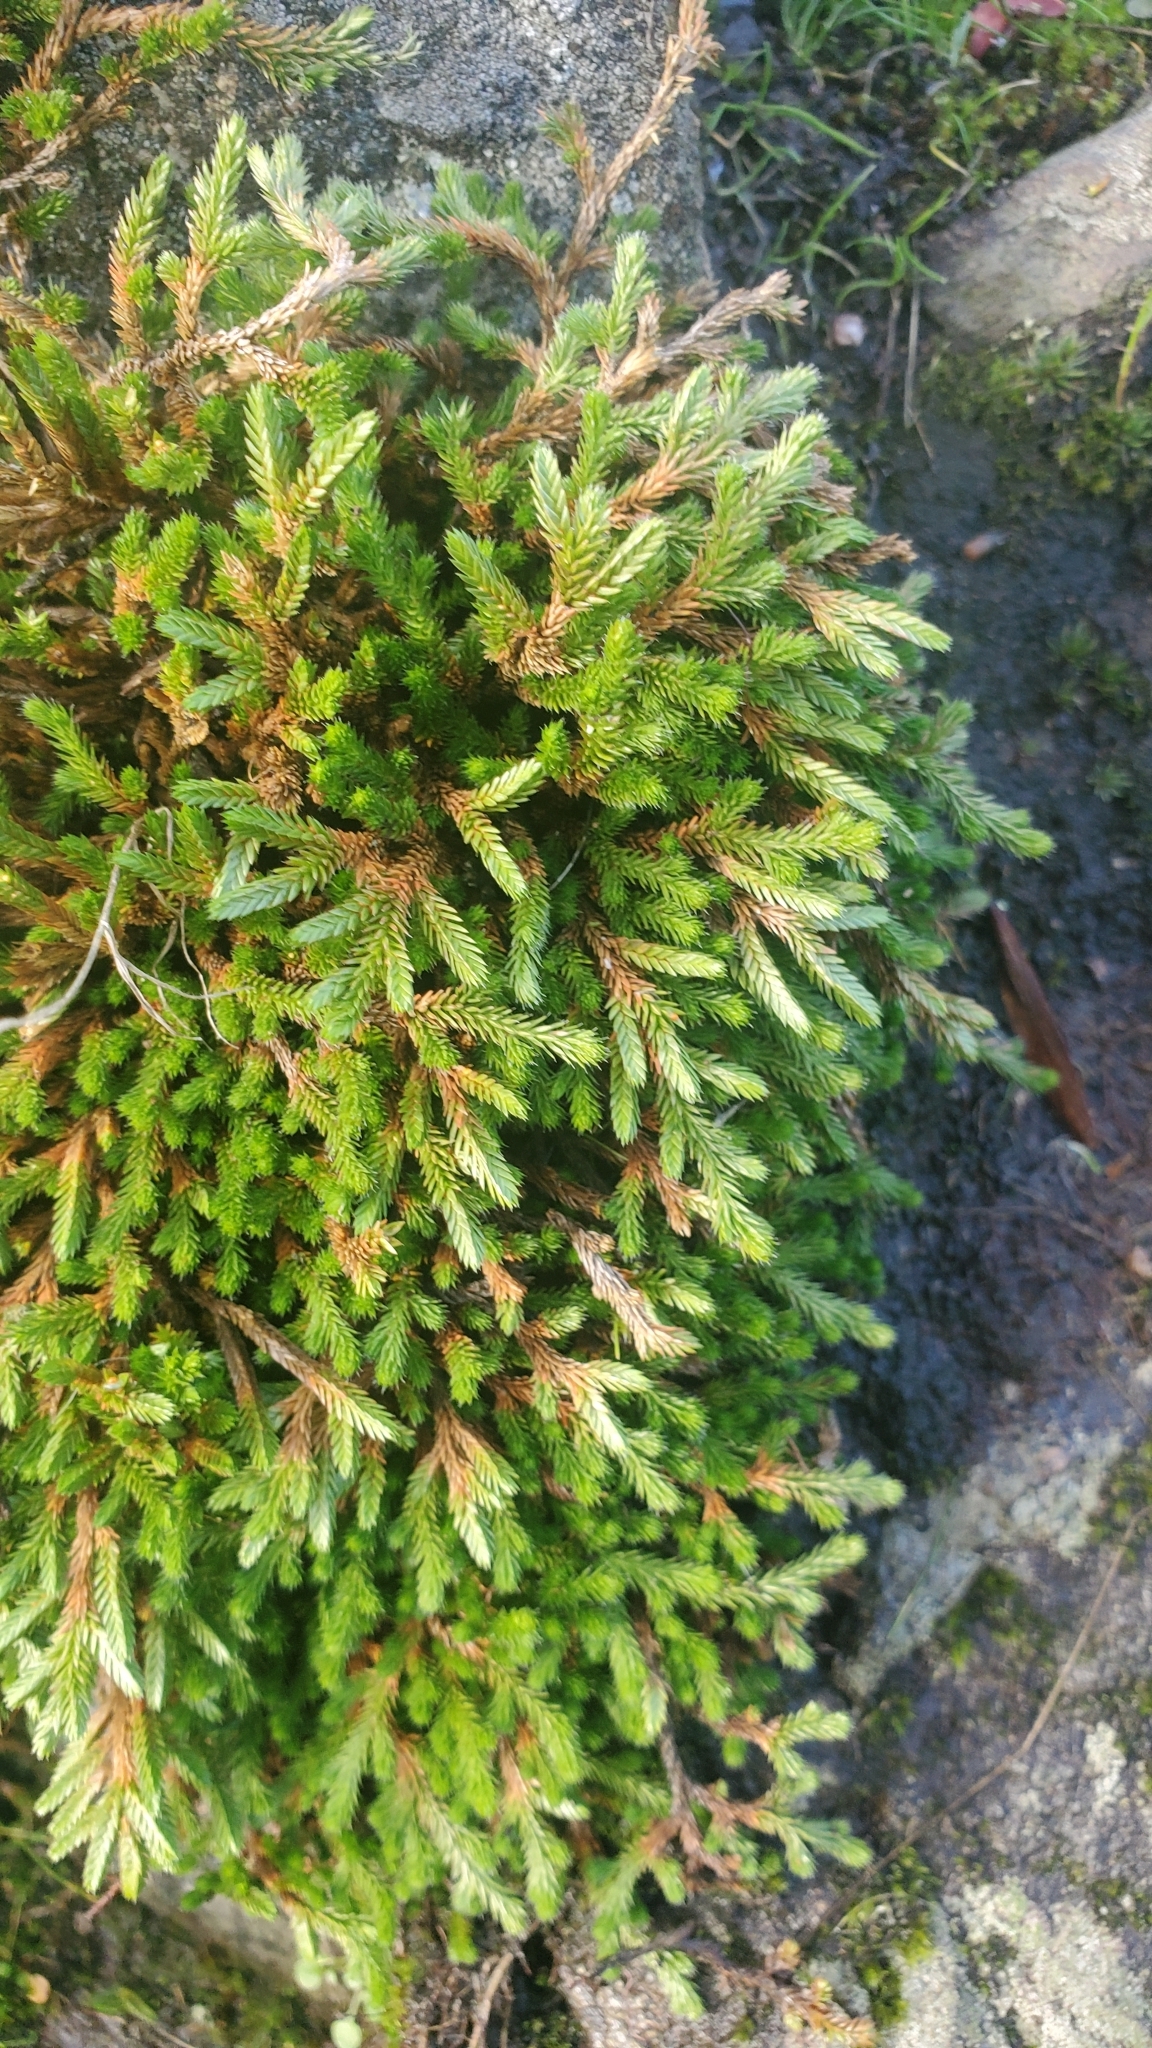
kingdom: Plantae
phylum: Tracheophyta
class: Lycopodiopsida
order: Selaginellales
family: Selaginellaceae
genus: Selaginella
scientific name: Selaginella wallacei
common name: Wallace's selaginella
